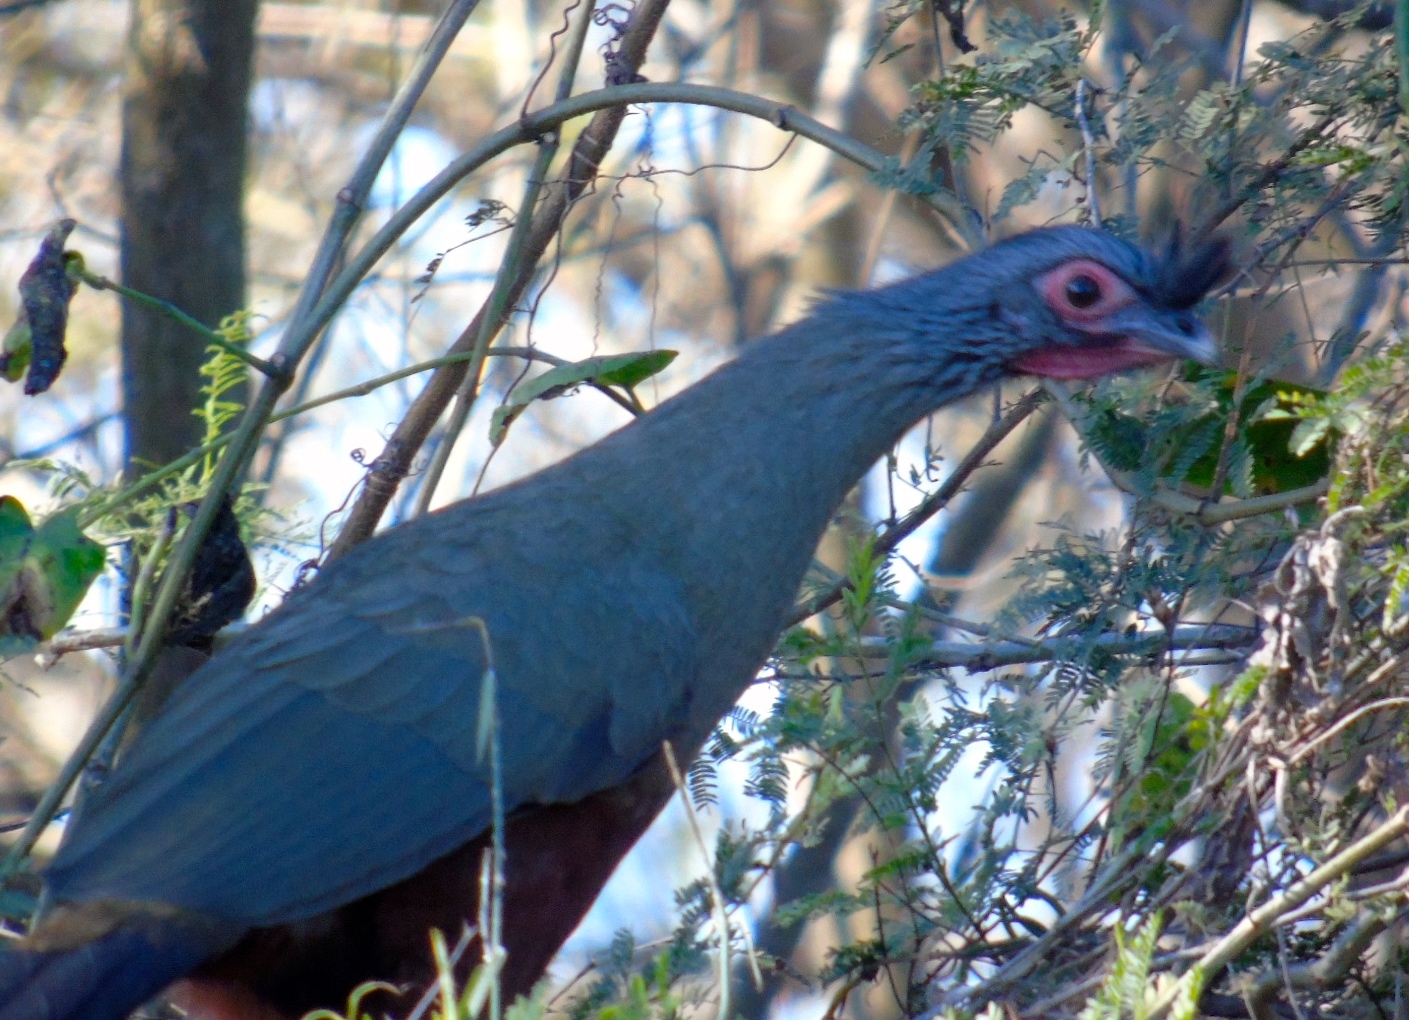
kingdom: Animalia
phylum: Chordata
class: Aves
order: Galliformes
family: Cracidae
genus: Ortalis
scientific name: Ortalis wagleri
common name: Rufous-bellied chachalaca
